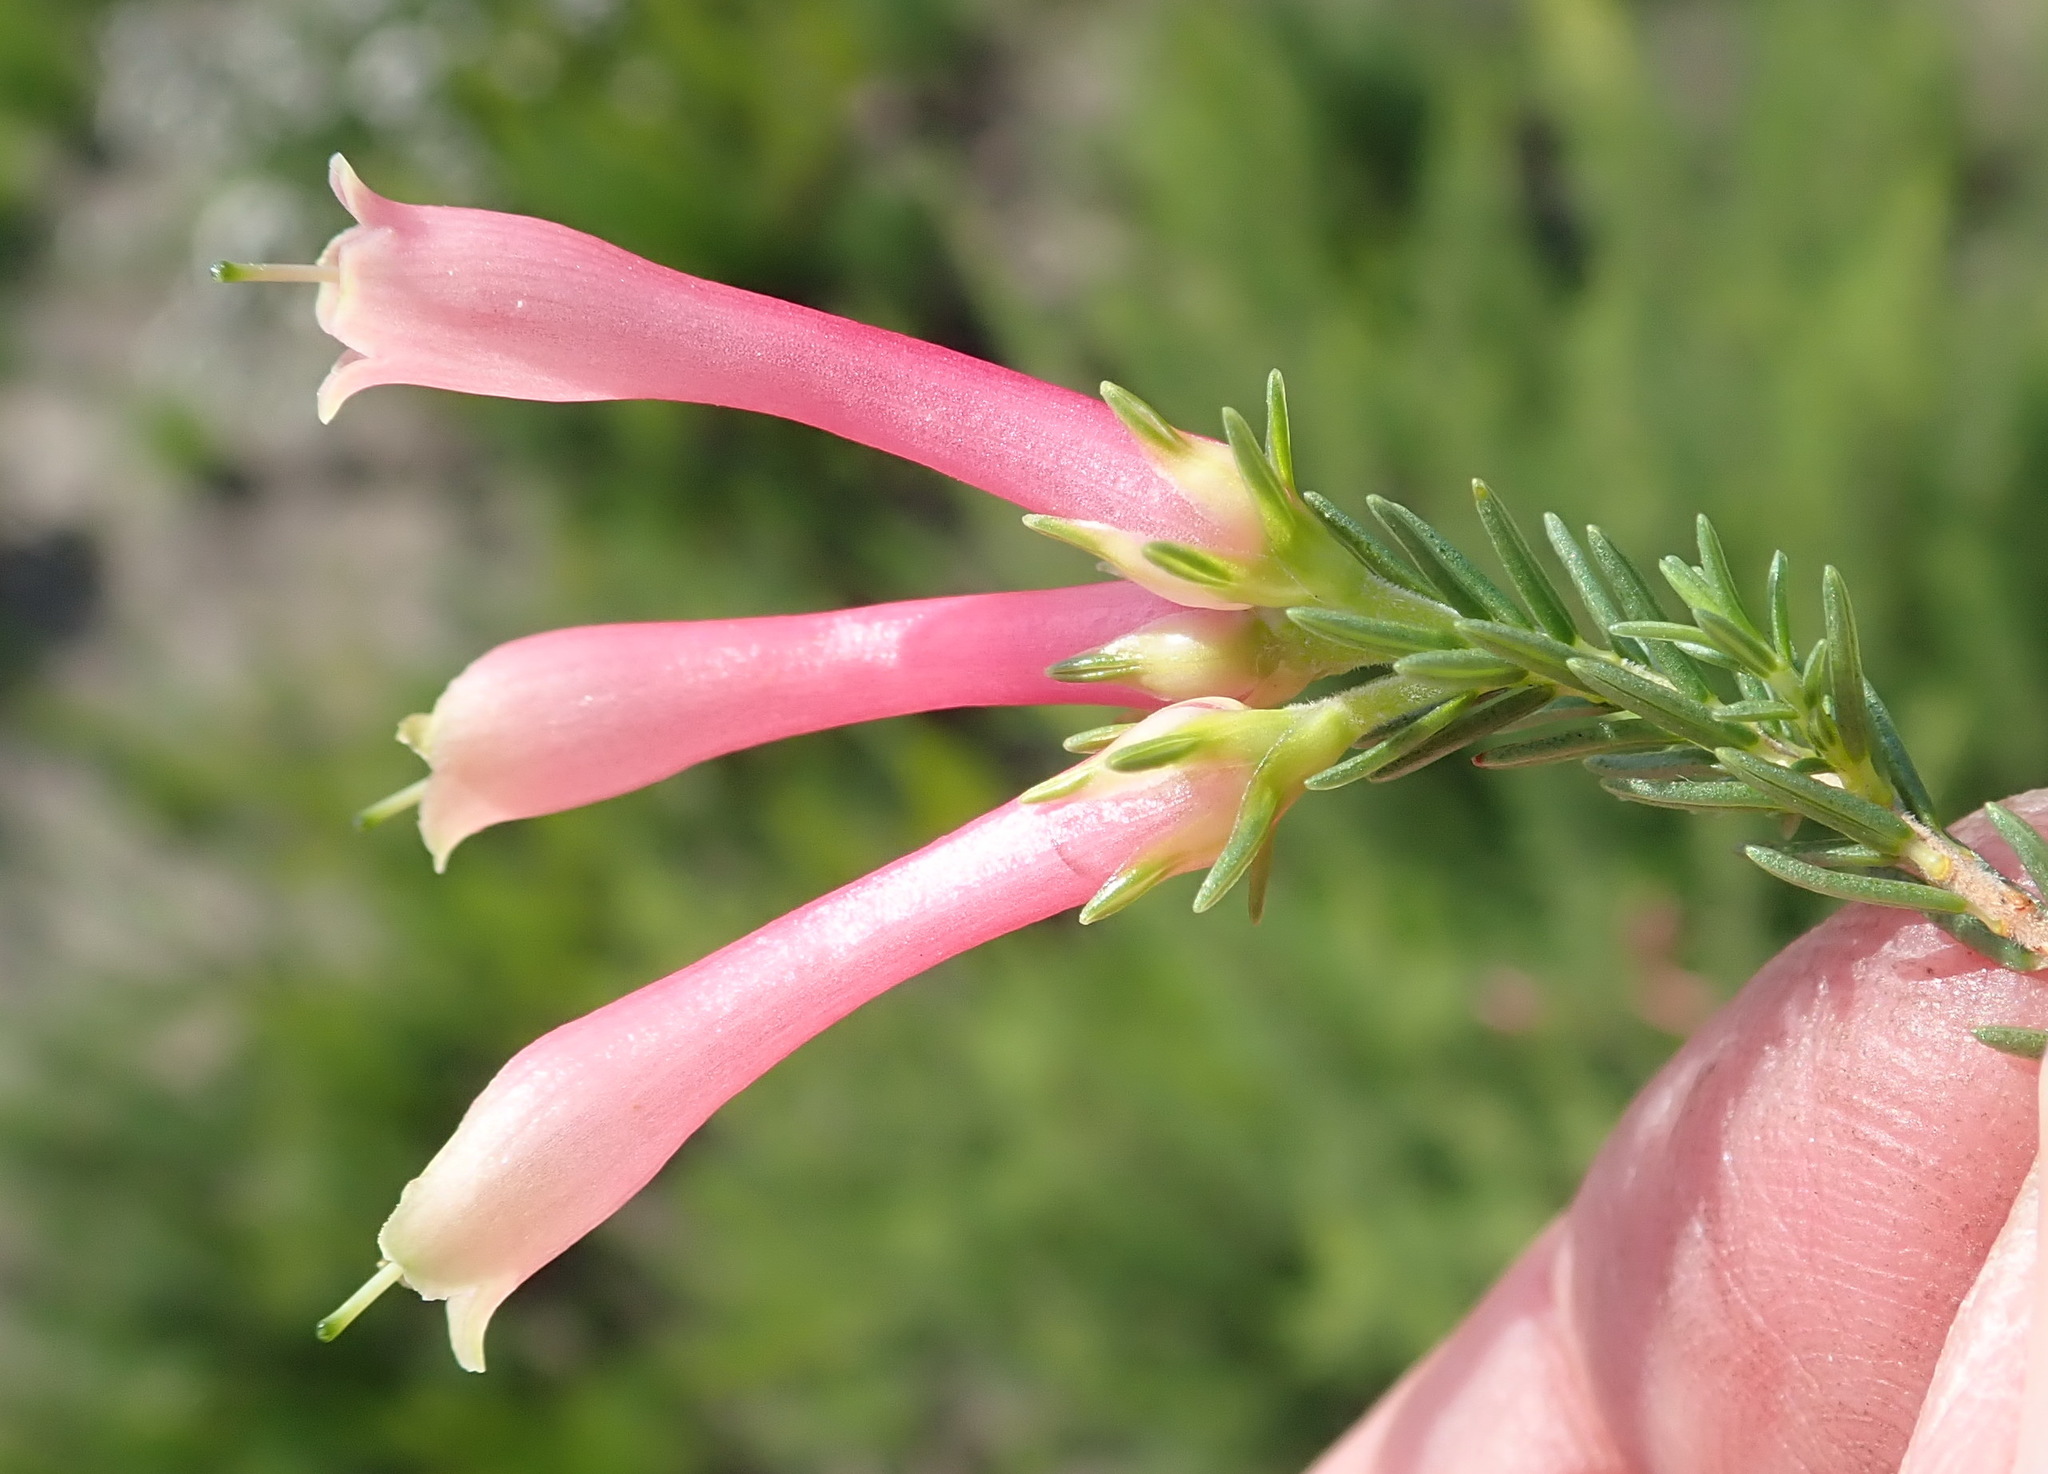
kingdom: Plantae
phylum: Tracheophyta
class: Magnoliopsida
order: Ericales
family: Ericaceae
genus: Erica
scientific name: Erica discolor
